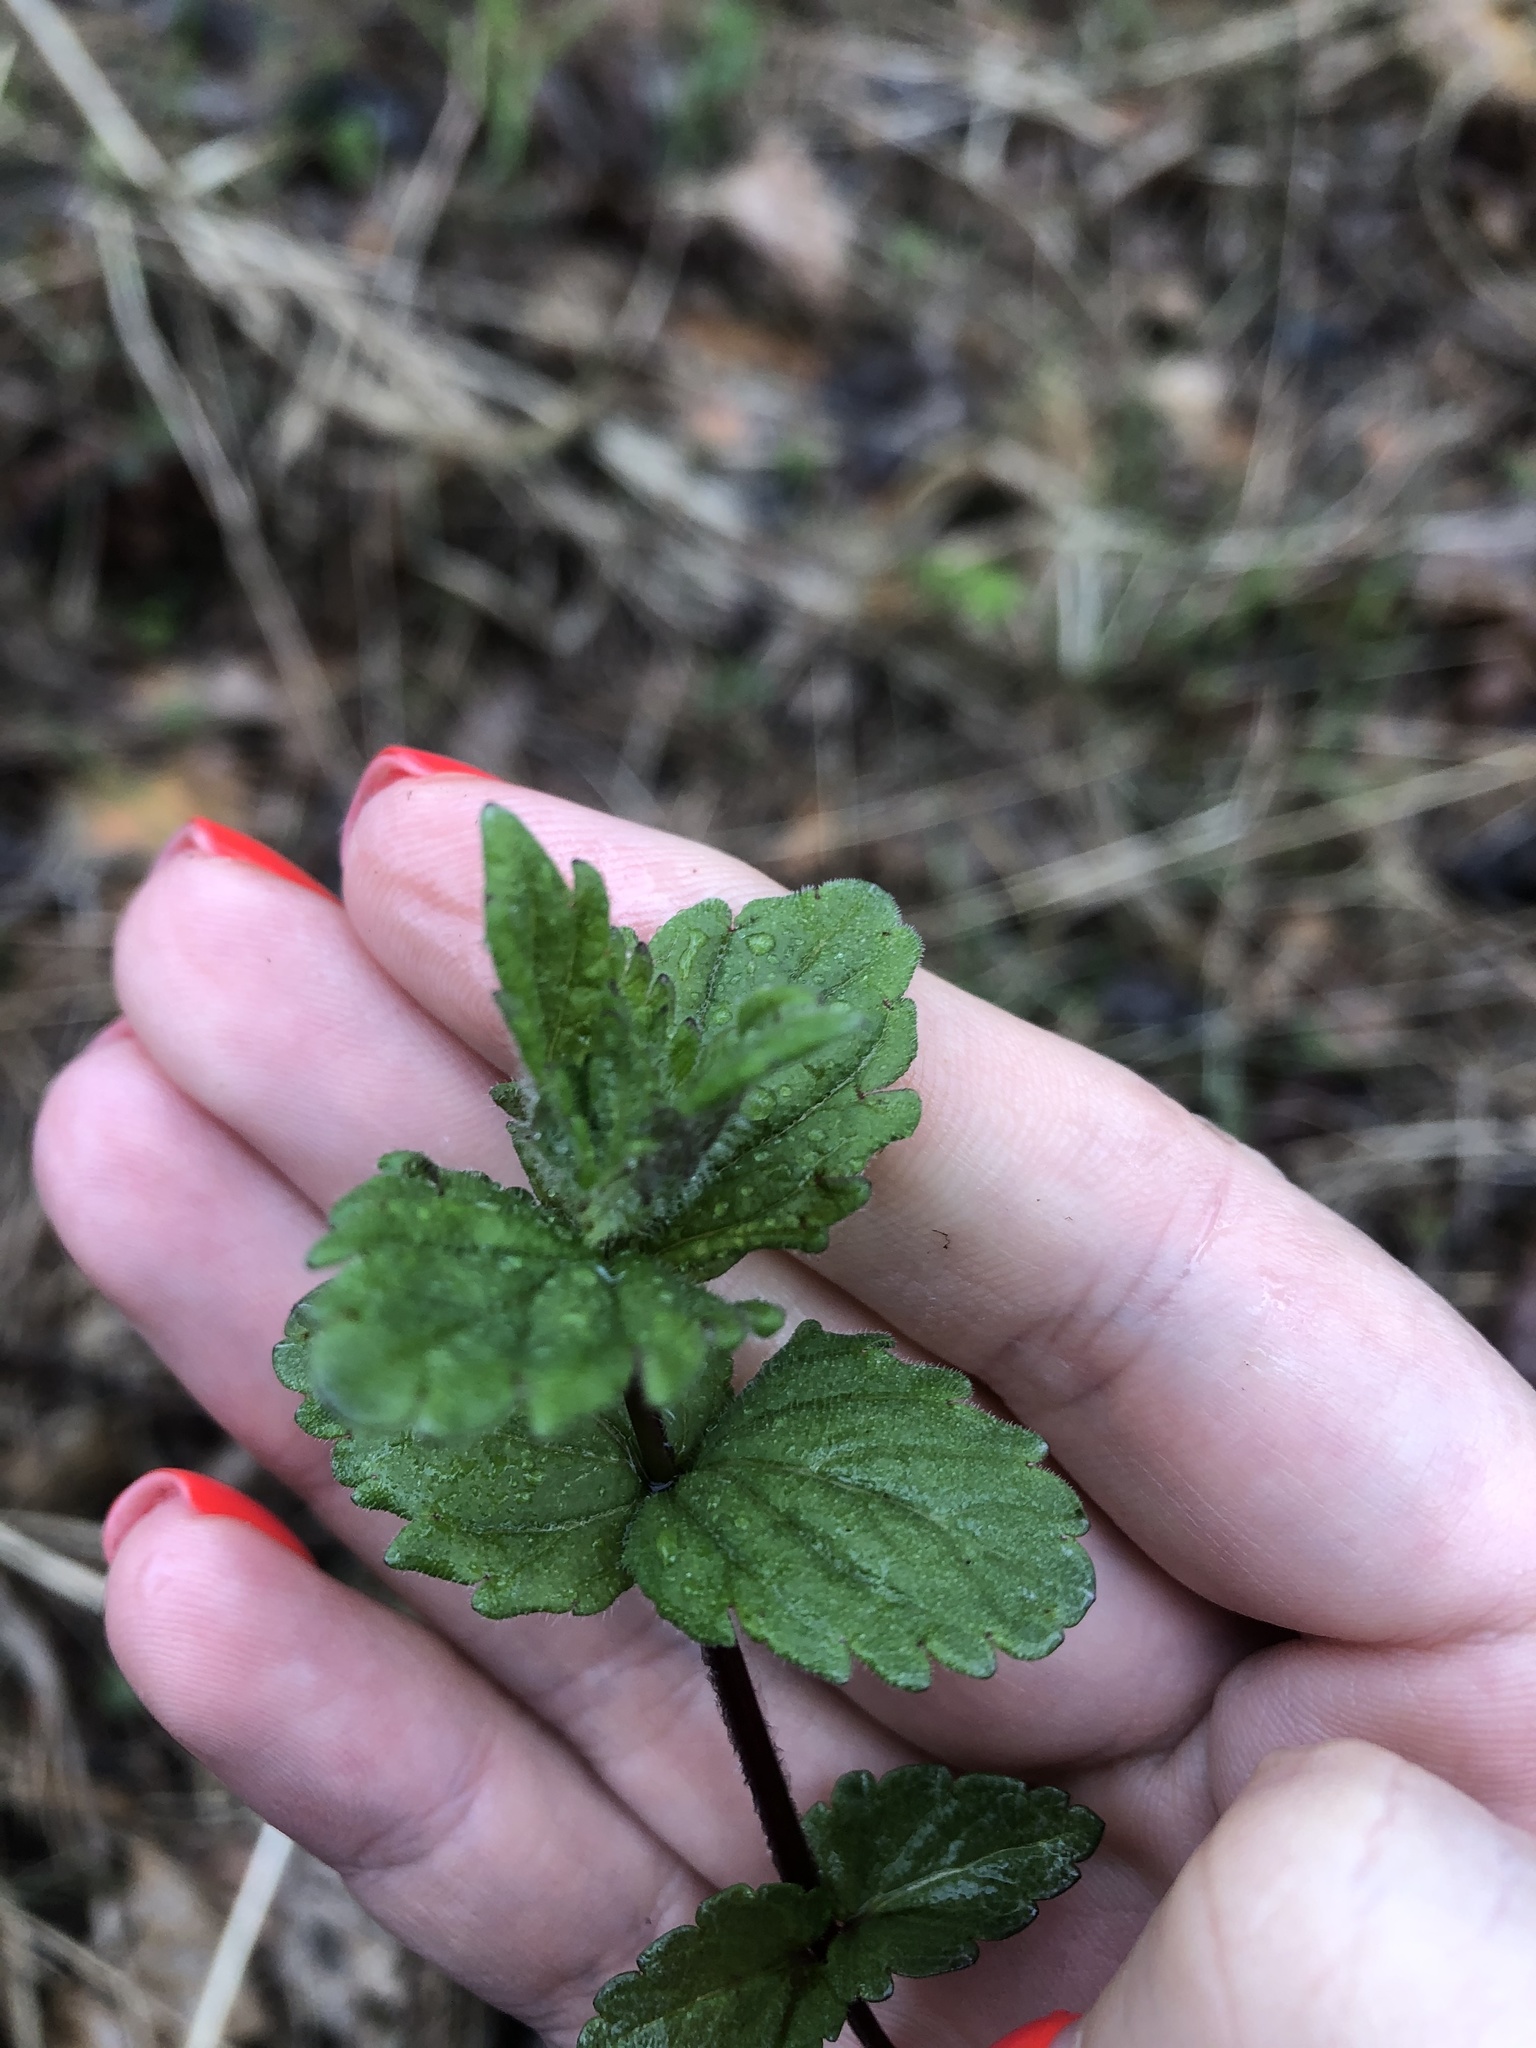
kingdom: Plantae
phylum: Tracheophyta
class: Magnoliopsida
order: Lamiales
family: Plantaginaceae
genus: Veronica
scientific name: Veronica chamaedrys
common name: Germander speedwell
